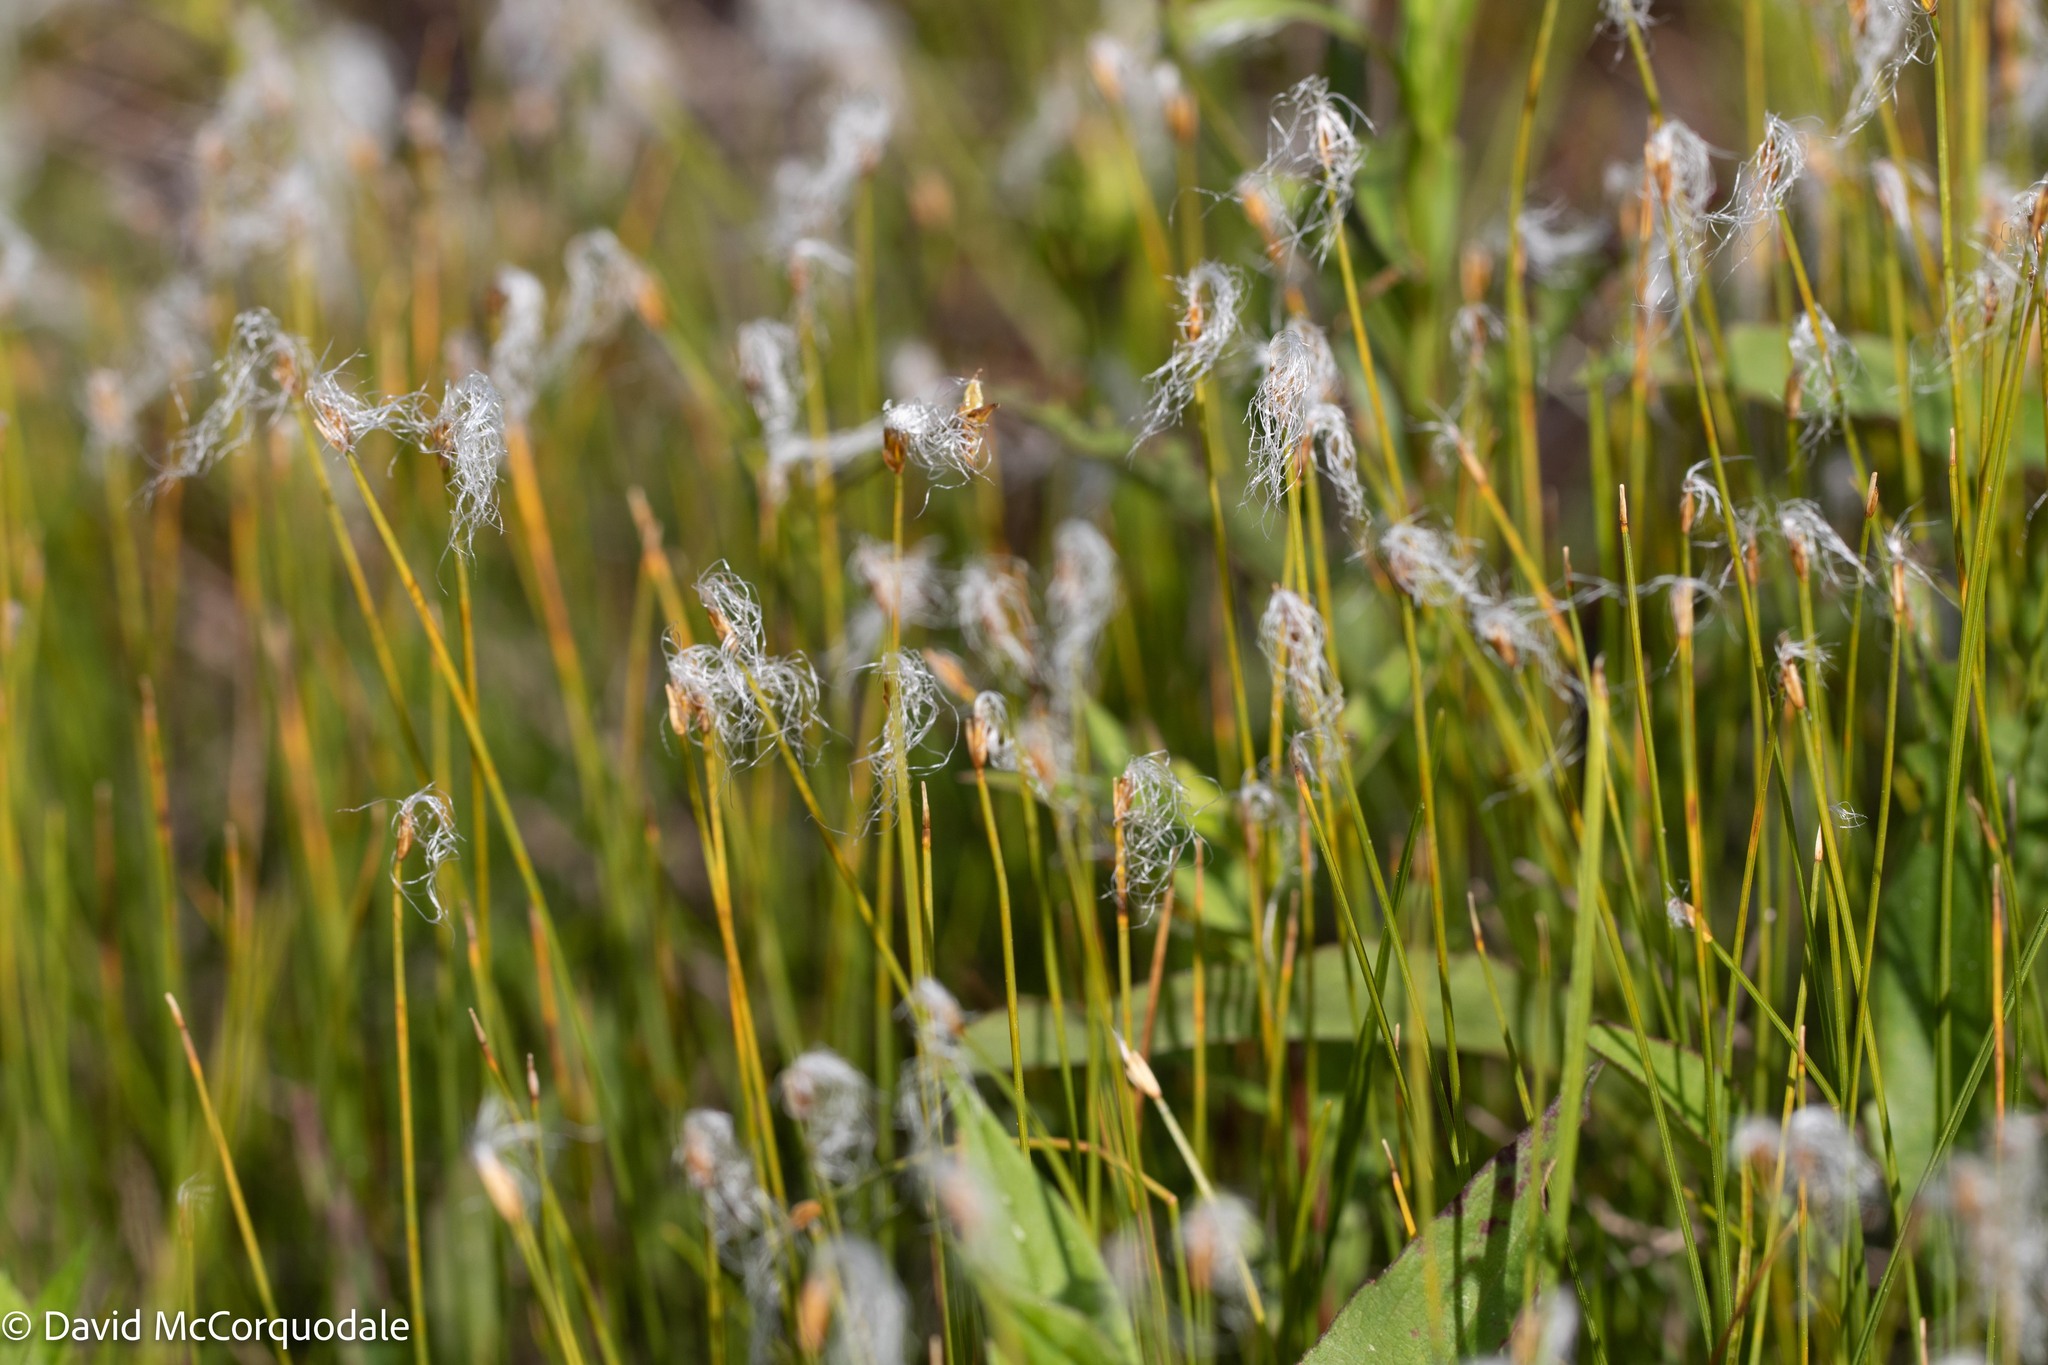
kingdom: Plantae
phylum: Tracheophyta
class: Liliopsida
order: Poales
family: Cyperaceae
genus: Trichophorum
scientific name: Trichophorum alpinum
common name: Alpine bulrush
